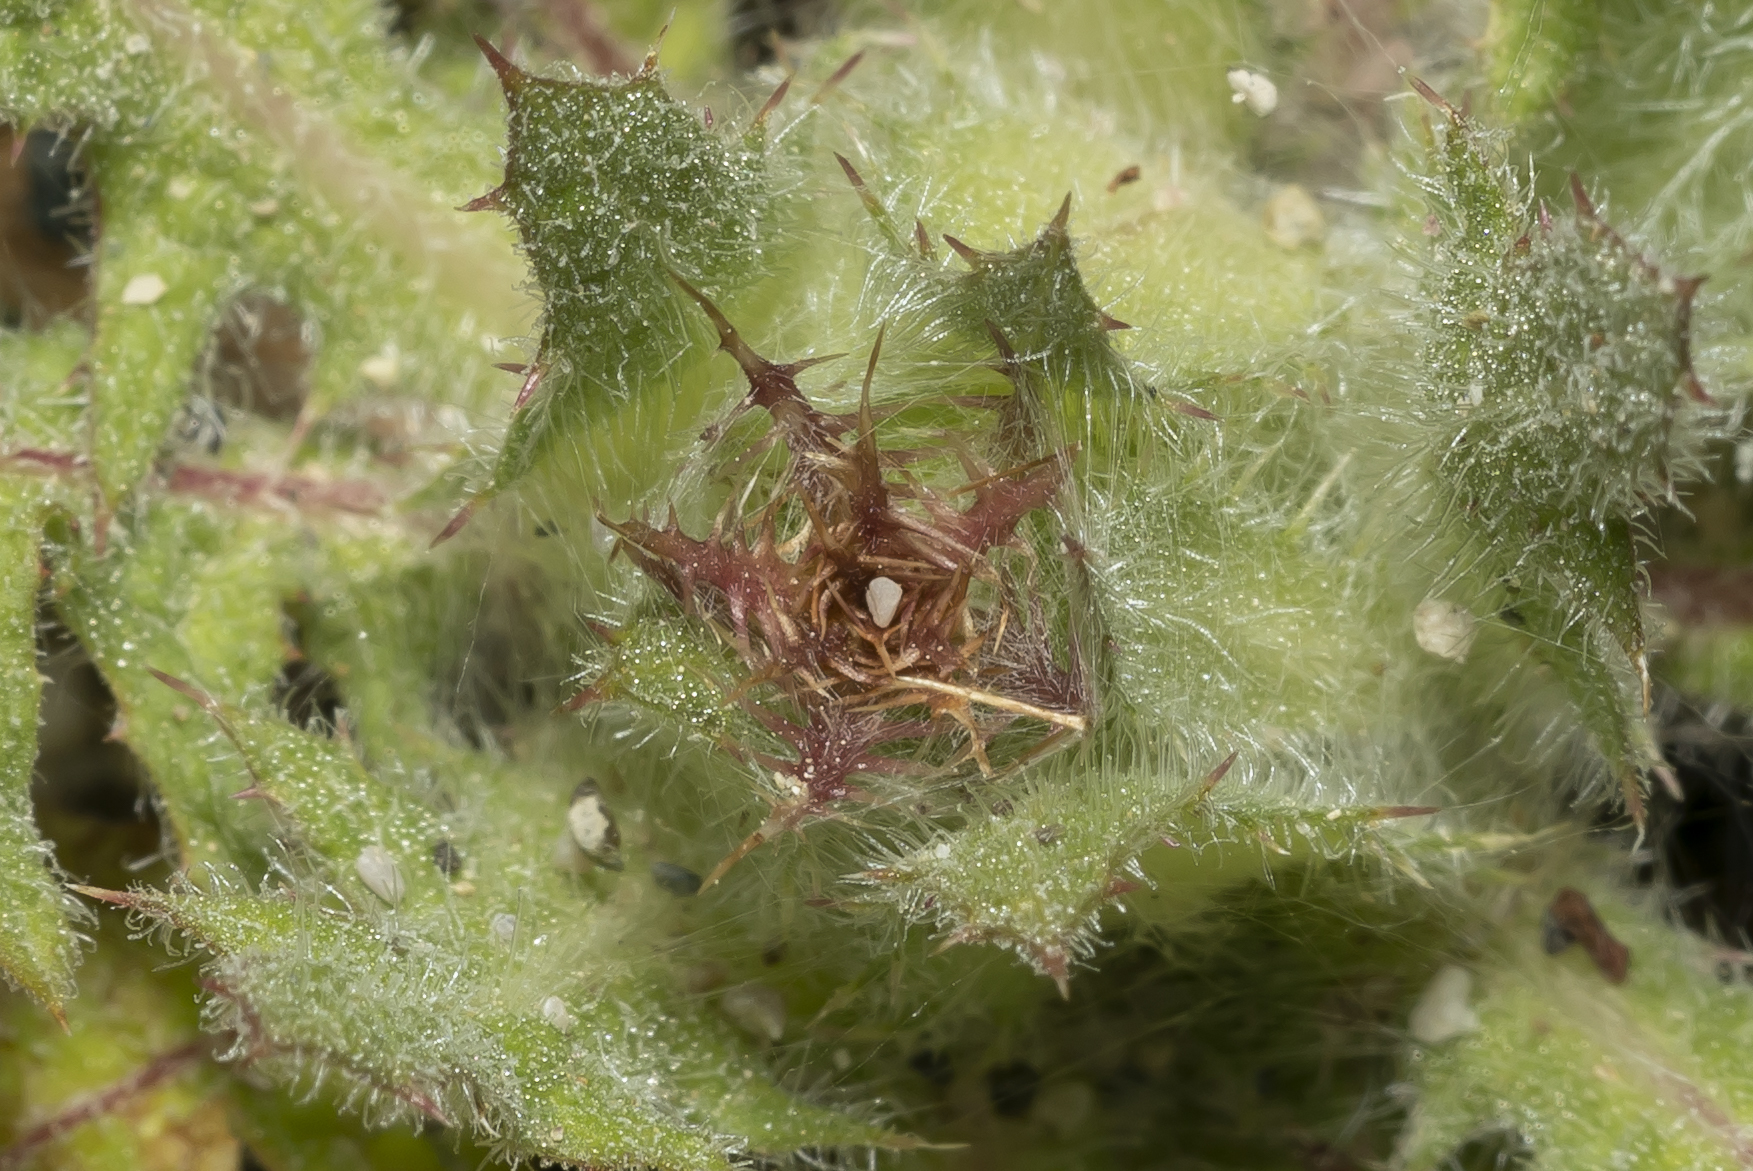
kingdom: Plantae
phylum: Tracheophyta
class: Magnoliopsida
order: Asterales
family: Asteraceae
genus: Centaurea
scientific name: Centaurea benedicta
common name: Blessed thistle
